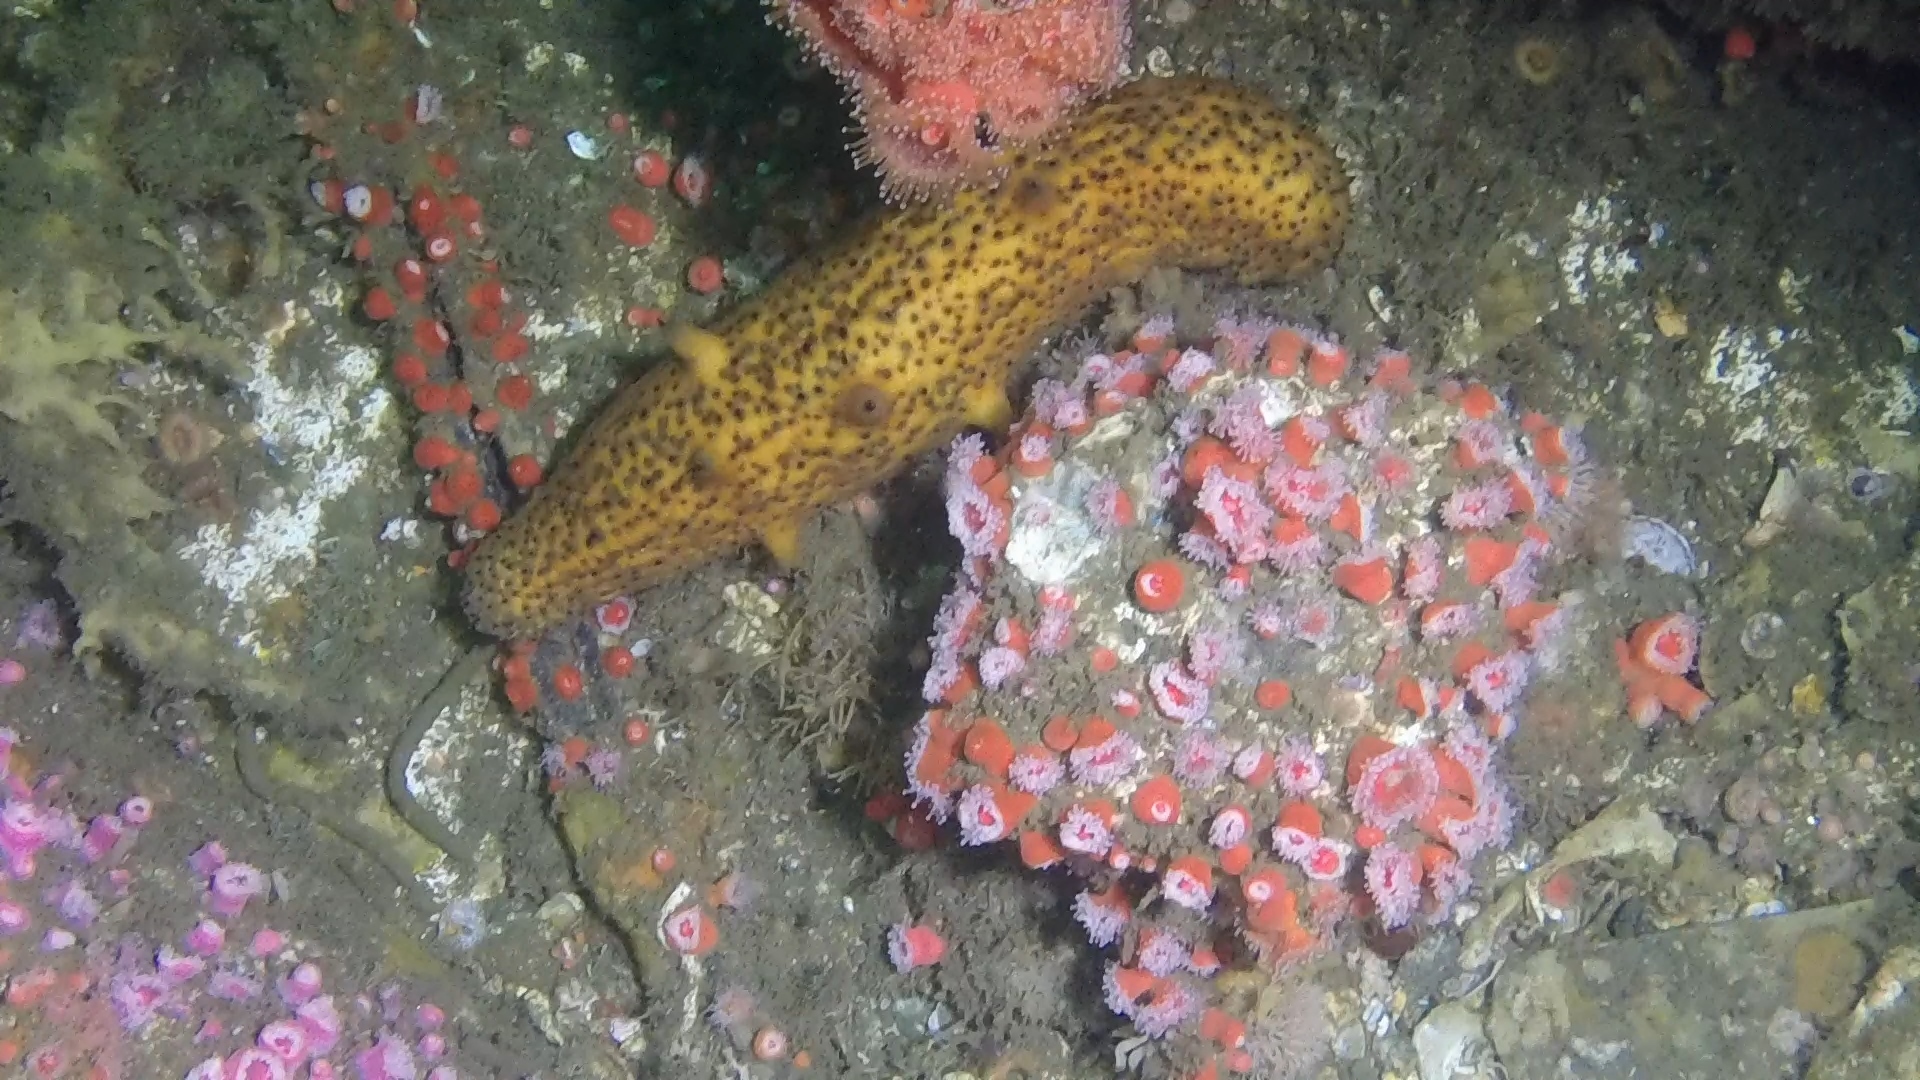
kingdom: Animalia
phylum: Echinodermata
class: Holothuroidea
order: Synallactida
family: Stichopodidae
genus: Apostichopus
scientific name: Apostichopus parvimensis
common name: Warty sea cucumber
